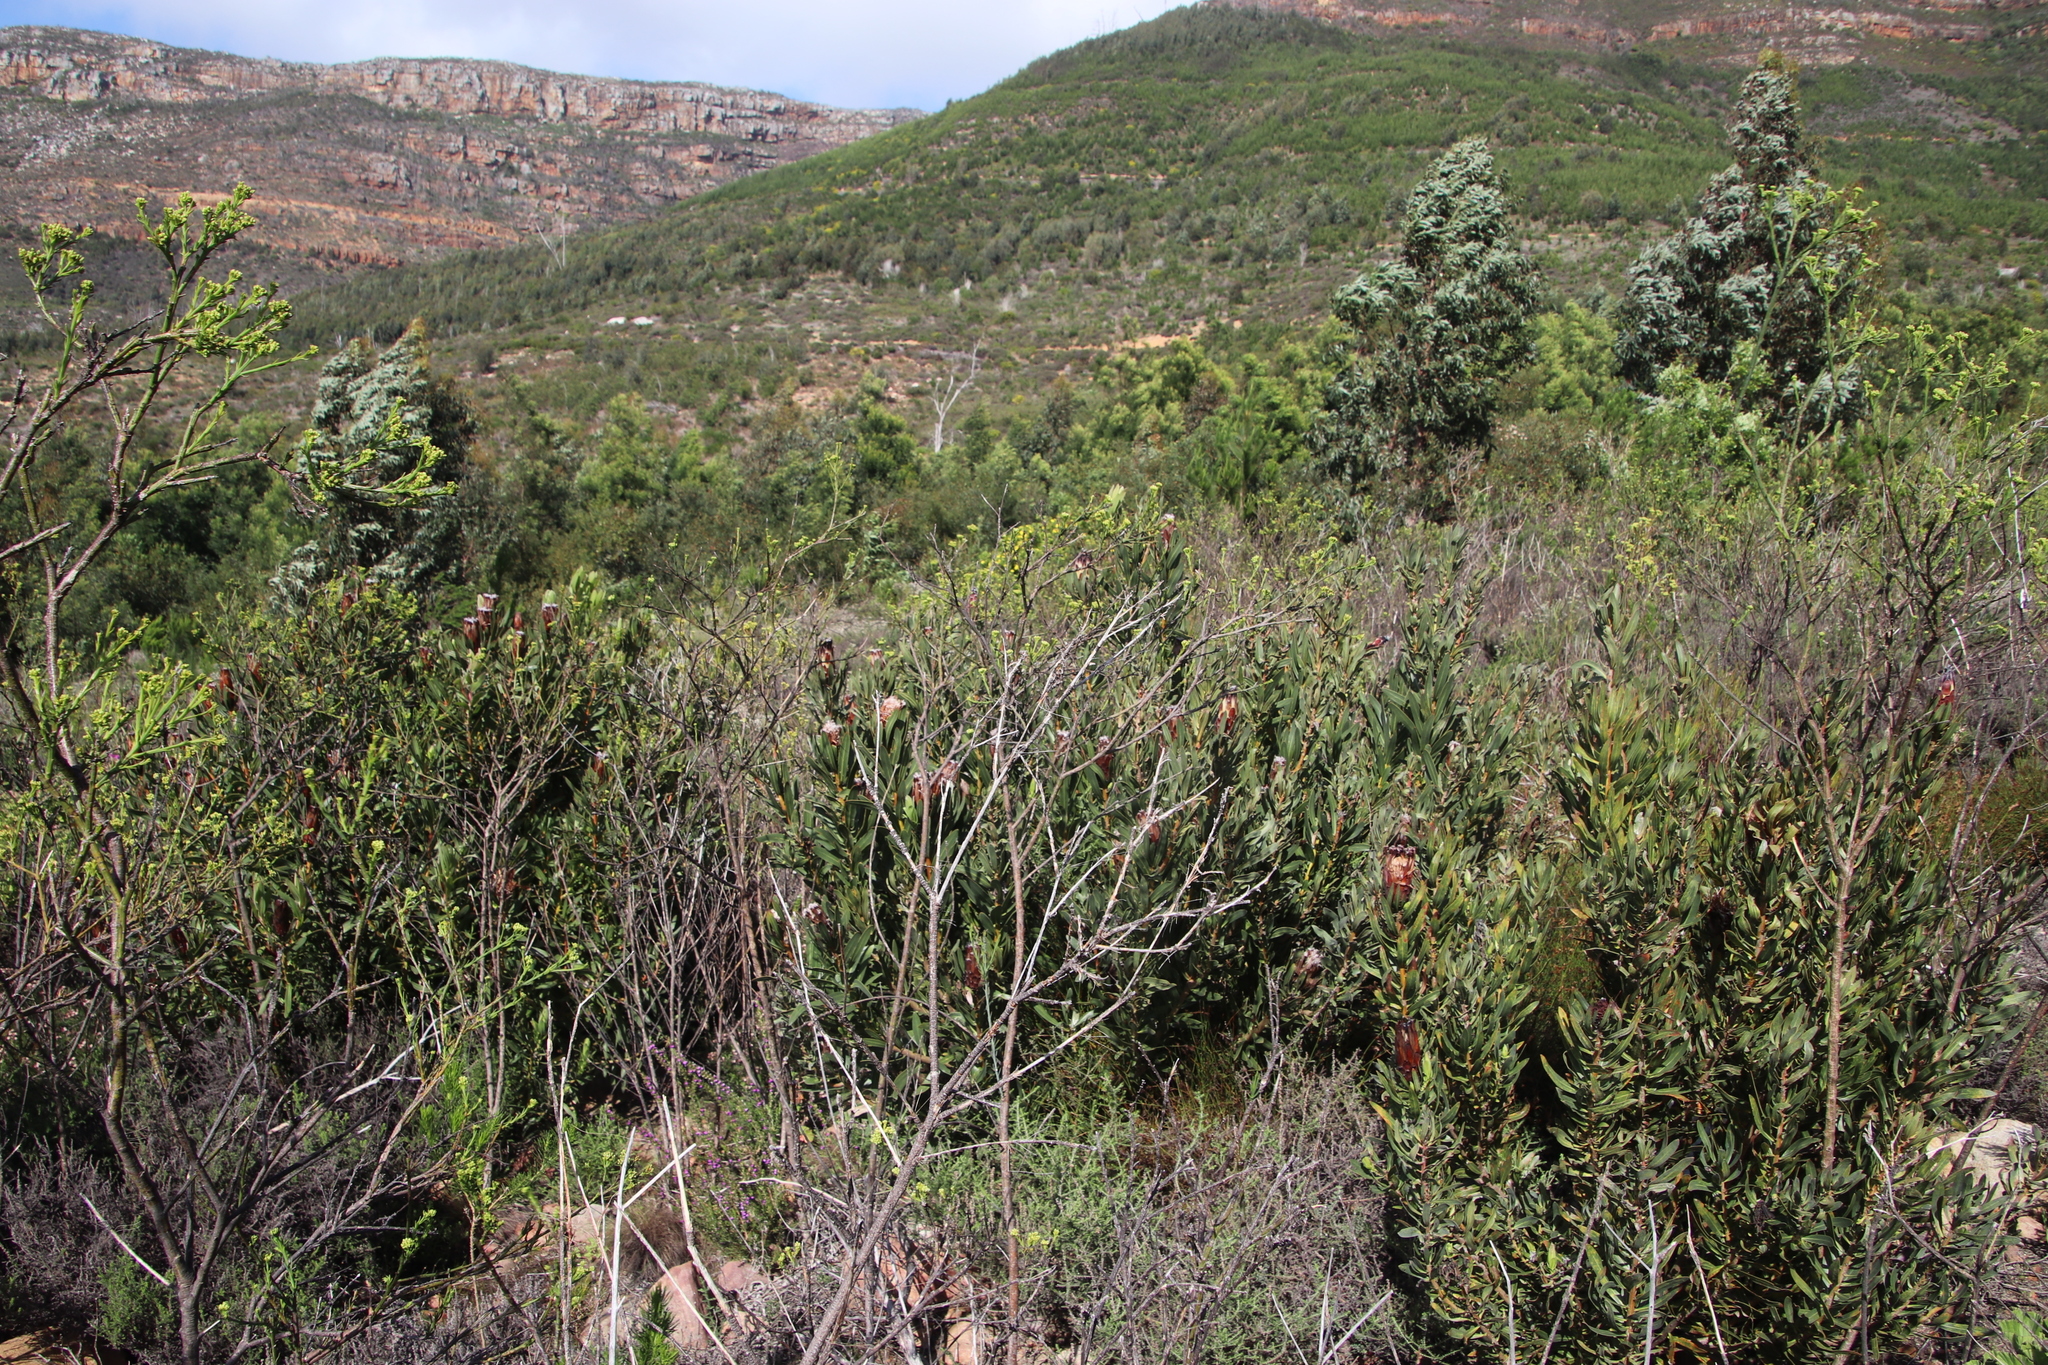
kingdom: Plantae
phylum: Tracheophyta
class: Magnoliopsida
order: Santalales
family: Thesiaceae
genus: Thesium
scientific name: Thesium strictum
